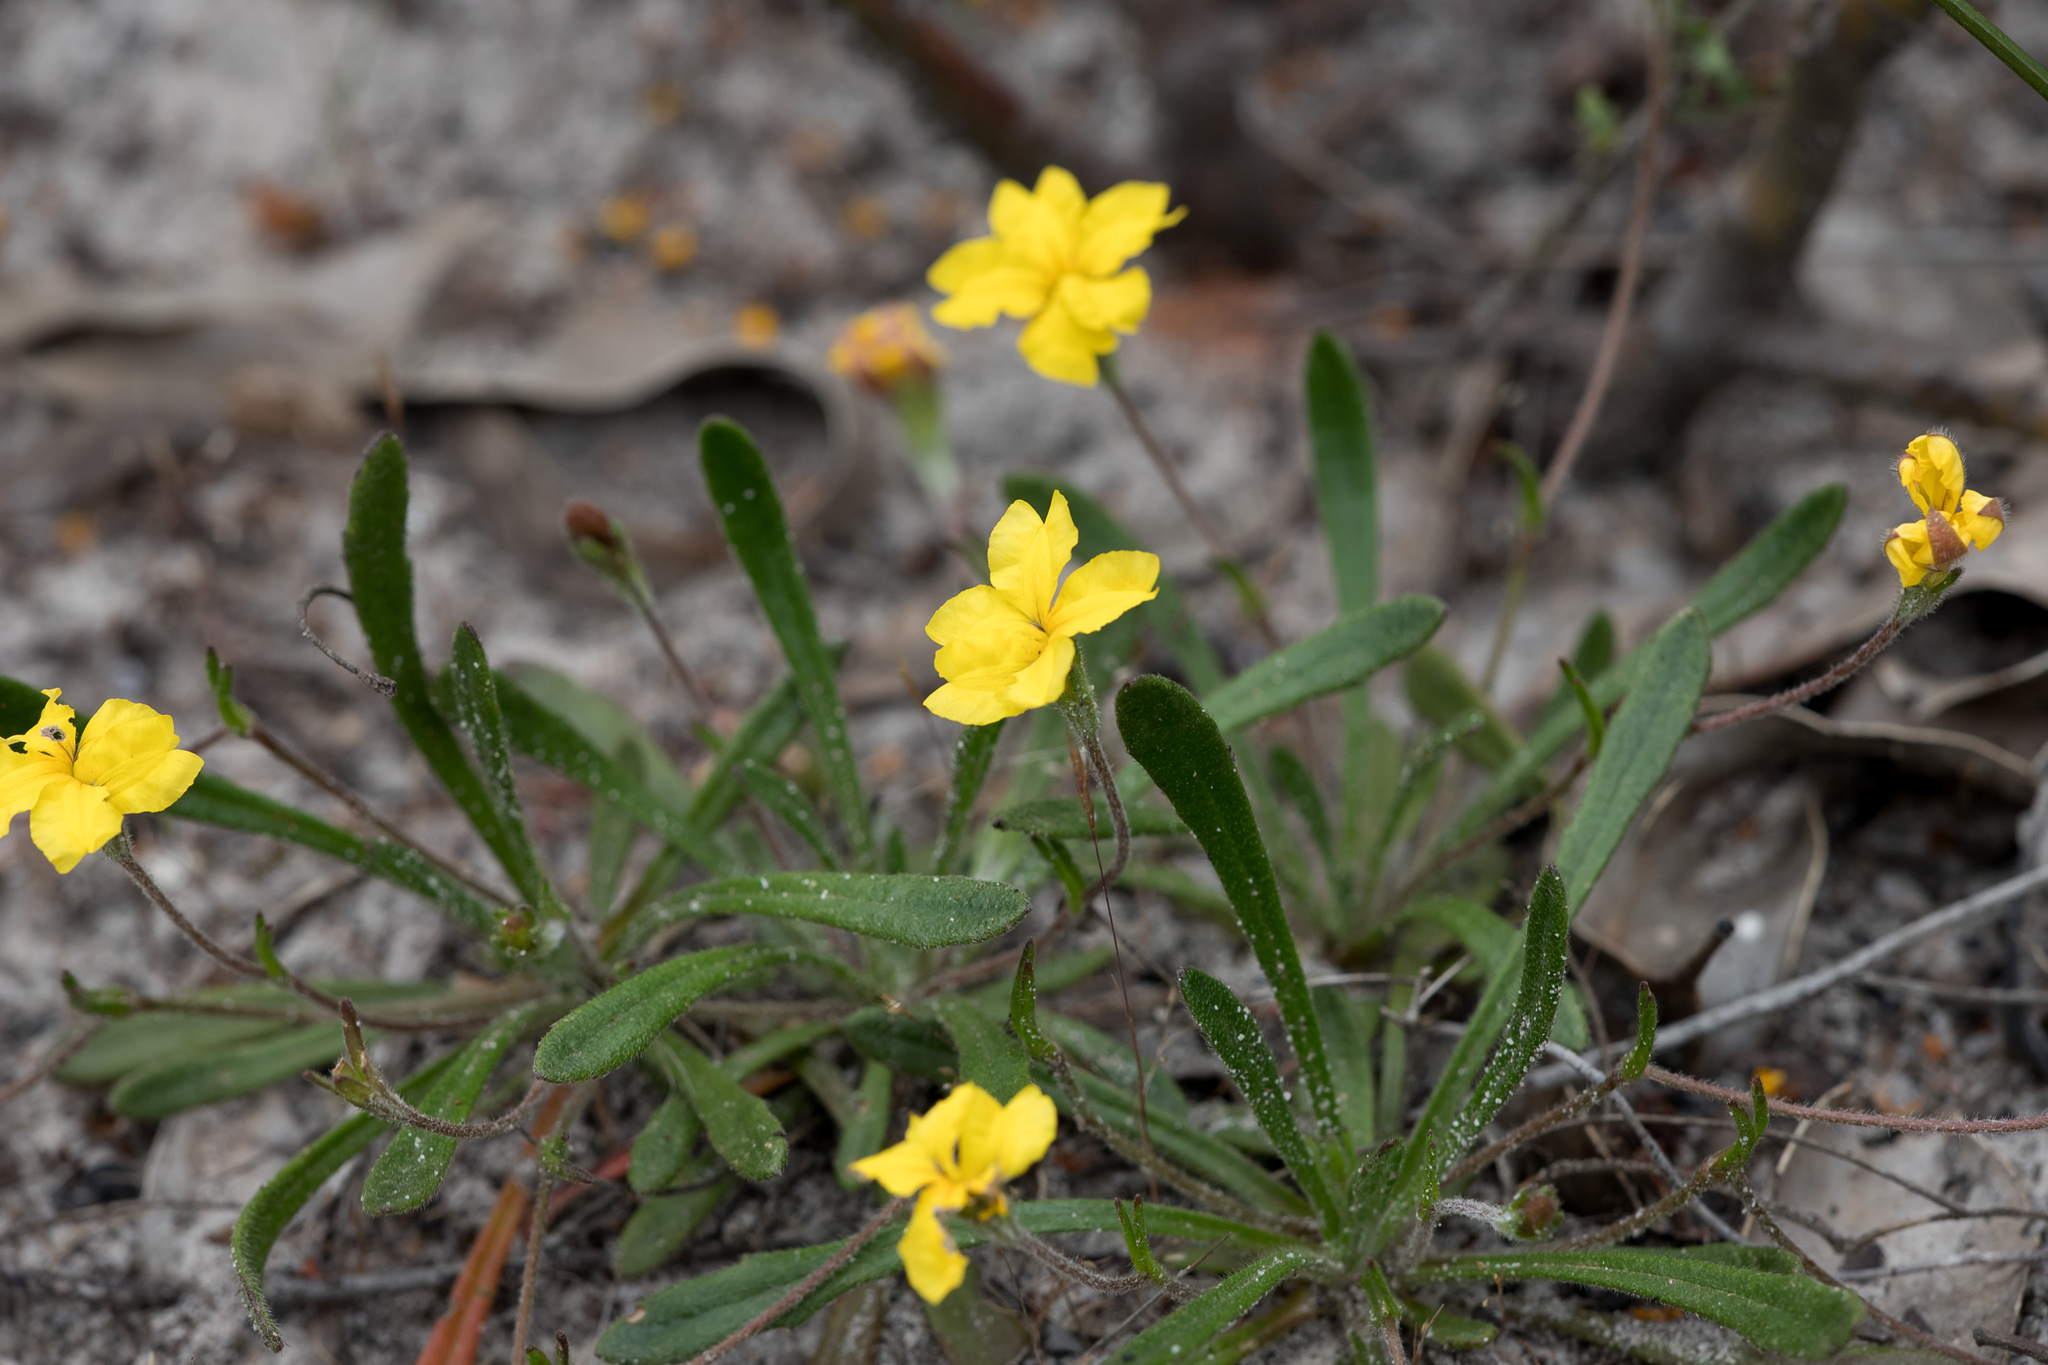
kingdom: Plantae
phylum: Tracheophyta
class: Magnoliopsida
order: Asterales
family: Goodeniaceae
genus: Goodenia
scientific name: Goodenia geniculata
